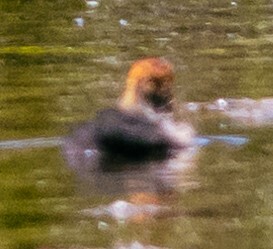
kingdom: Animalia
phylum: Chordata
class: Aves
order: Gruiformes
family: Rallidae
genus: Fulica
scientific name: Fulica atra
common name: Eurasian coot
